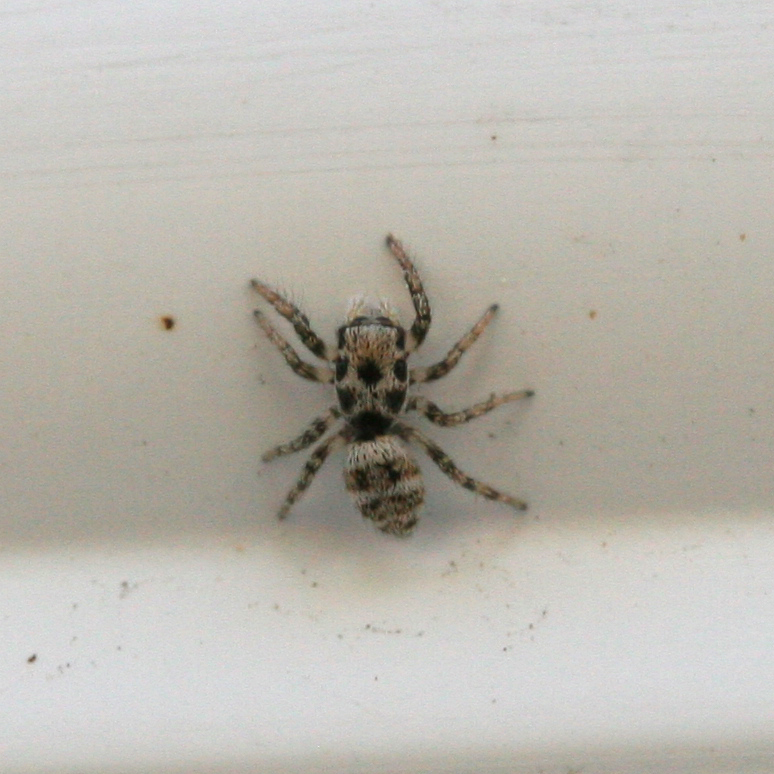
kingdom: Animalia
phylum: Arthropoda
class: Arachnida
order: Araneae
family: Salticidae
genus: Salticus
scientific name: Salticus scenicus
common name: Zebra jumper
